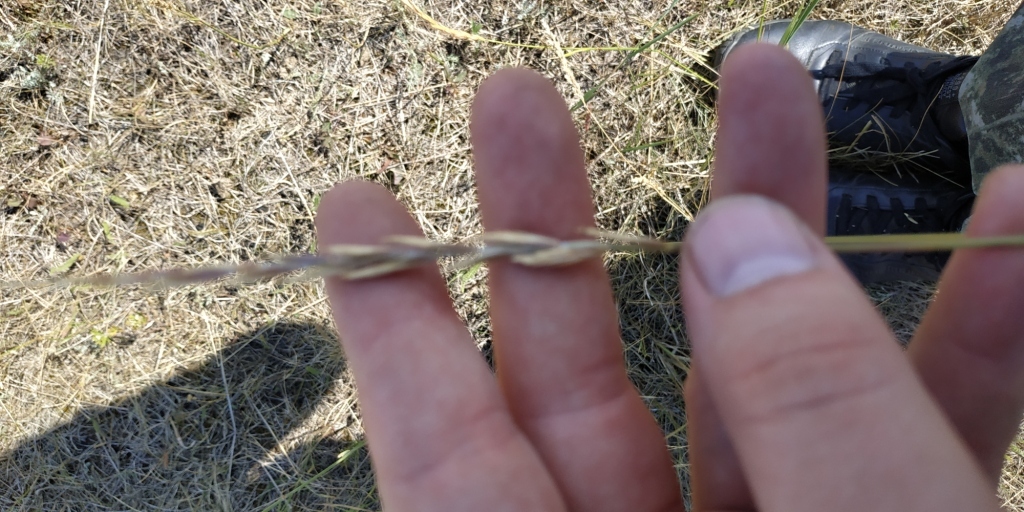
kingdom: Plantae
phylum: Tracheophyta
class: Liliopsida
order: Poales
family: Poaceae
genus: Elymus
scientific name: Elymus repens
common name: Quackgrass
